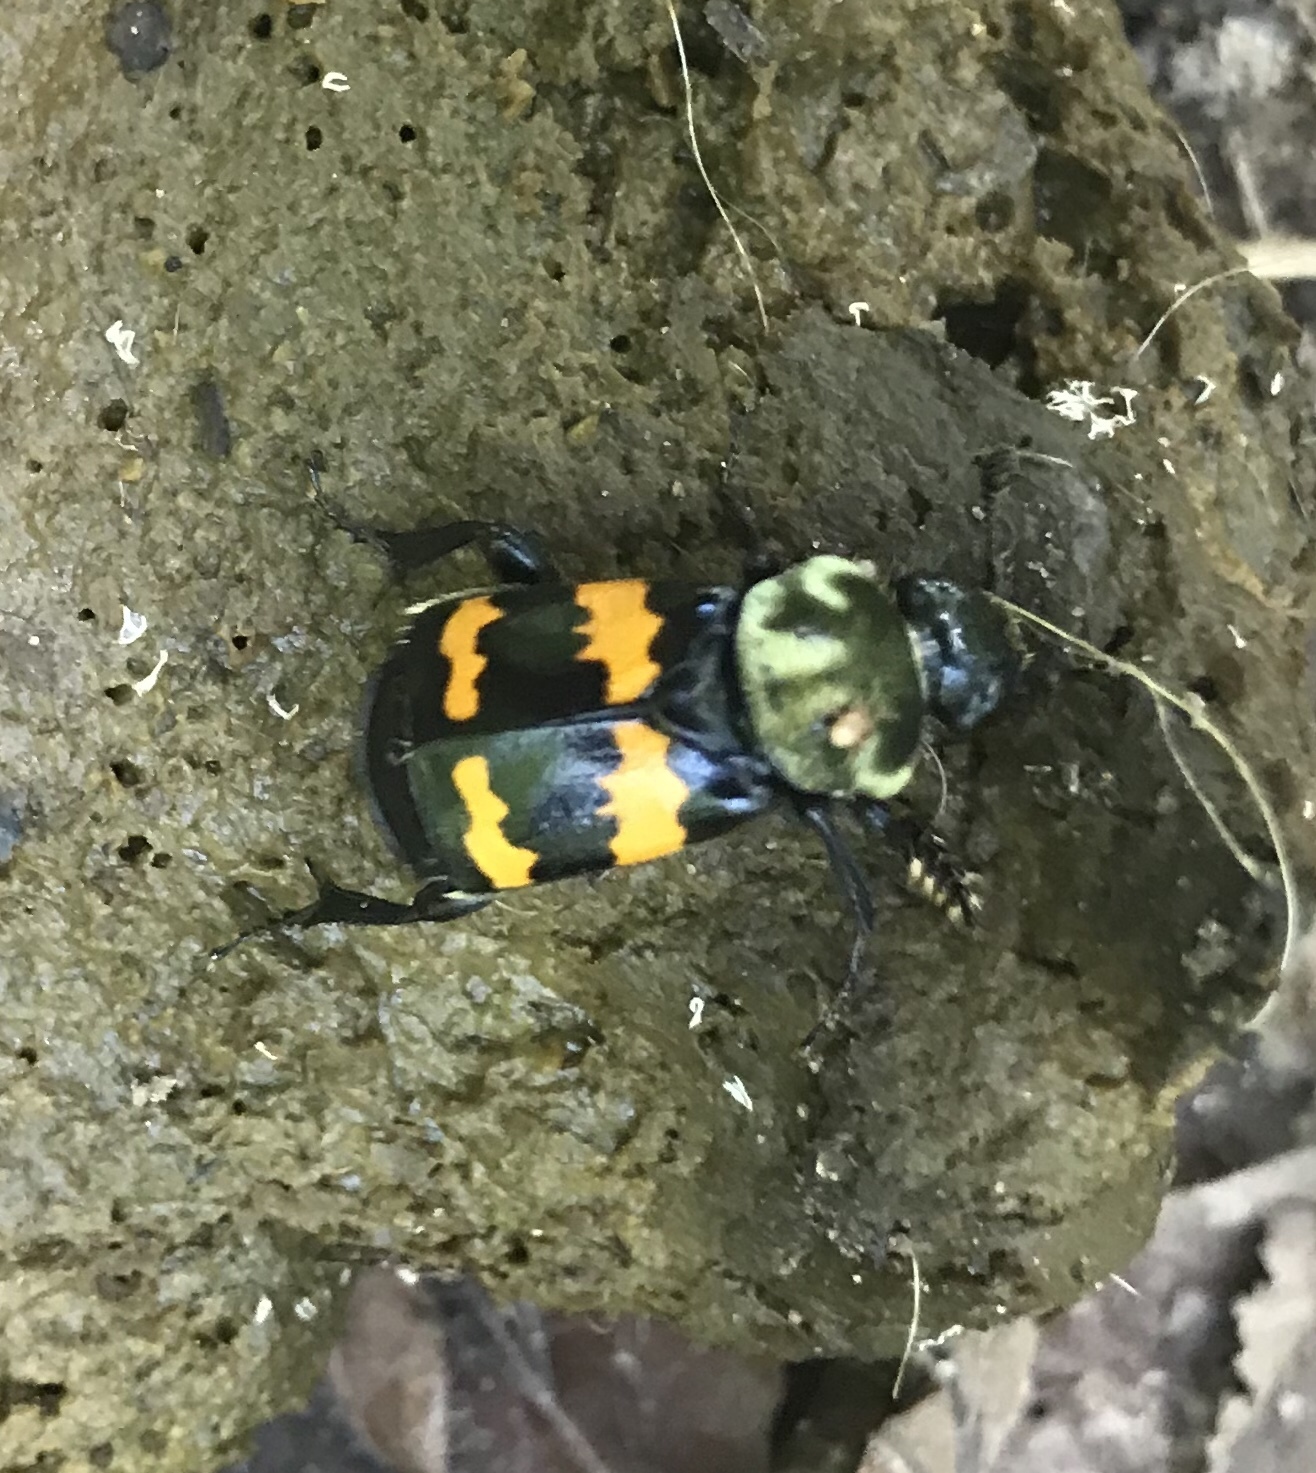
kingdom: Animalia
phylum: Arthropoda
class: Insecta
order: Coleoptera
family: Staphylinidae
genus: Nicrophorus
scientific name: Nicrophorus tomentosus
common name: Tomentose burying beetle
